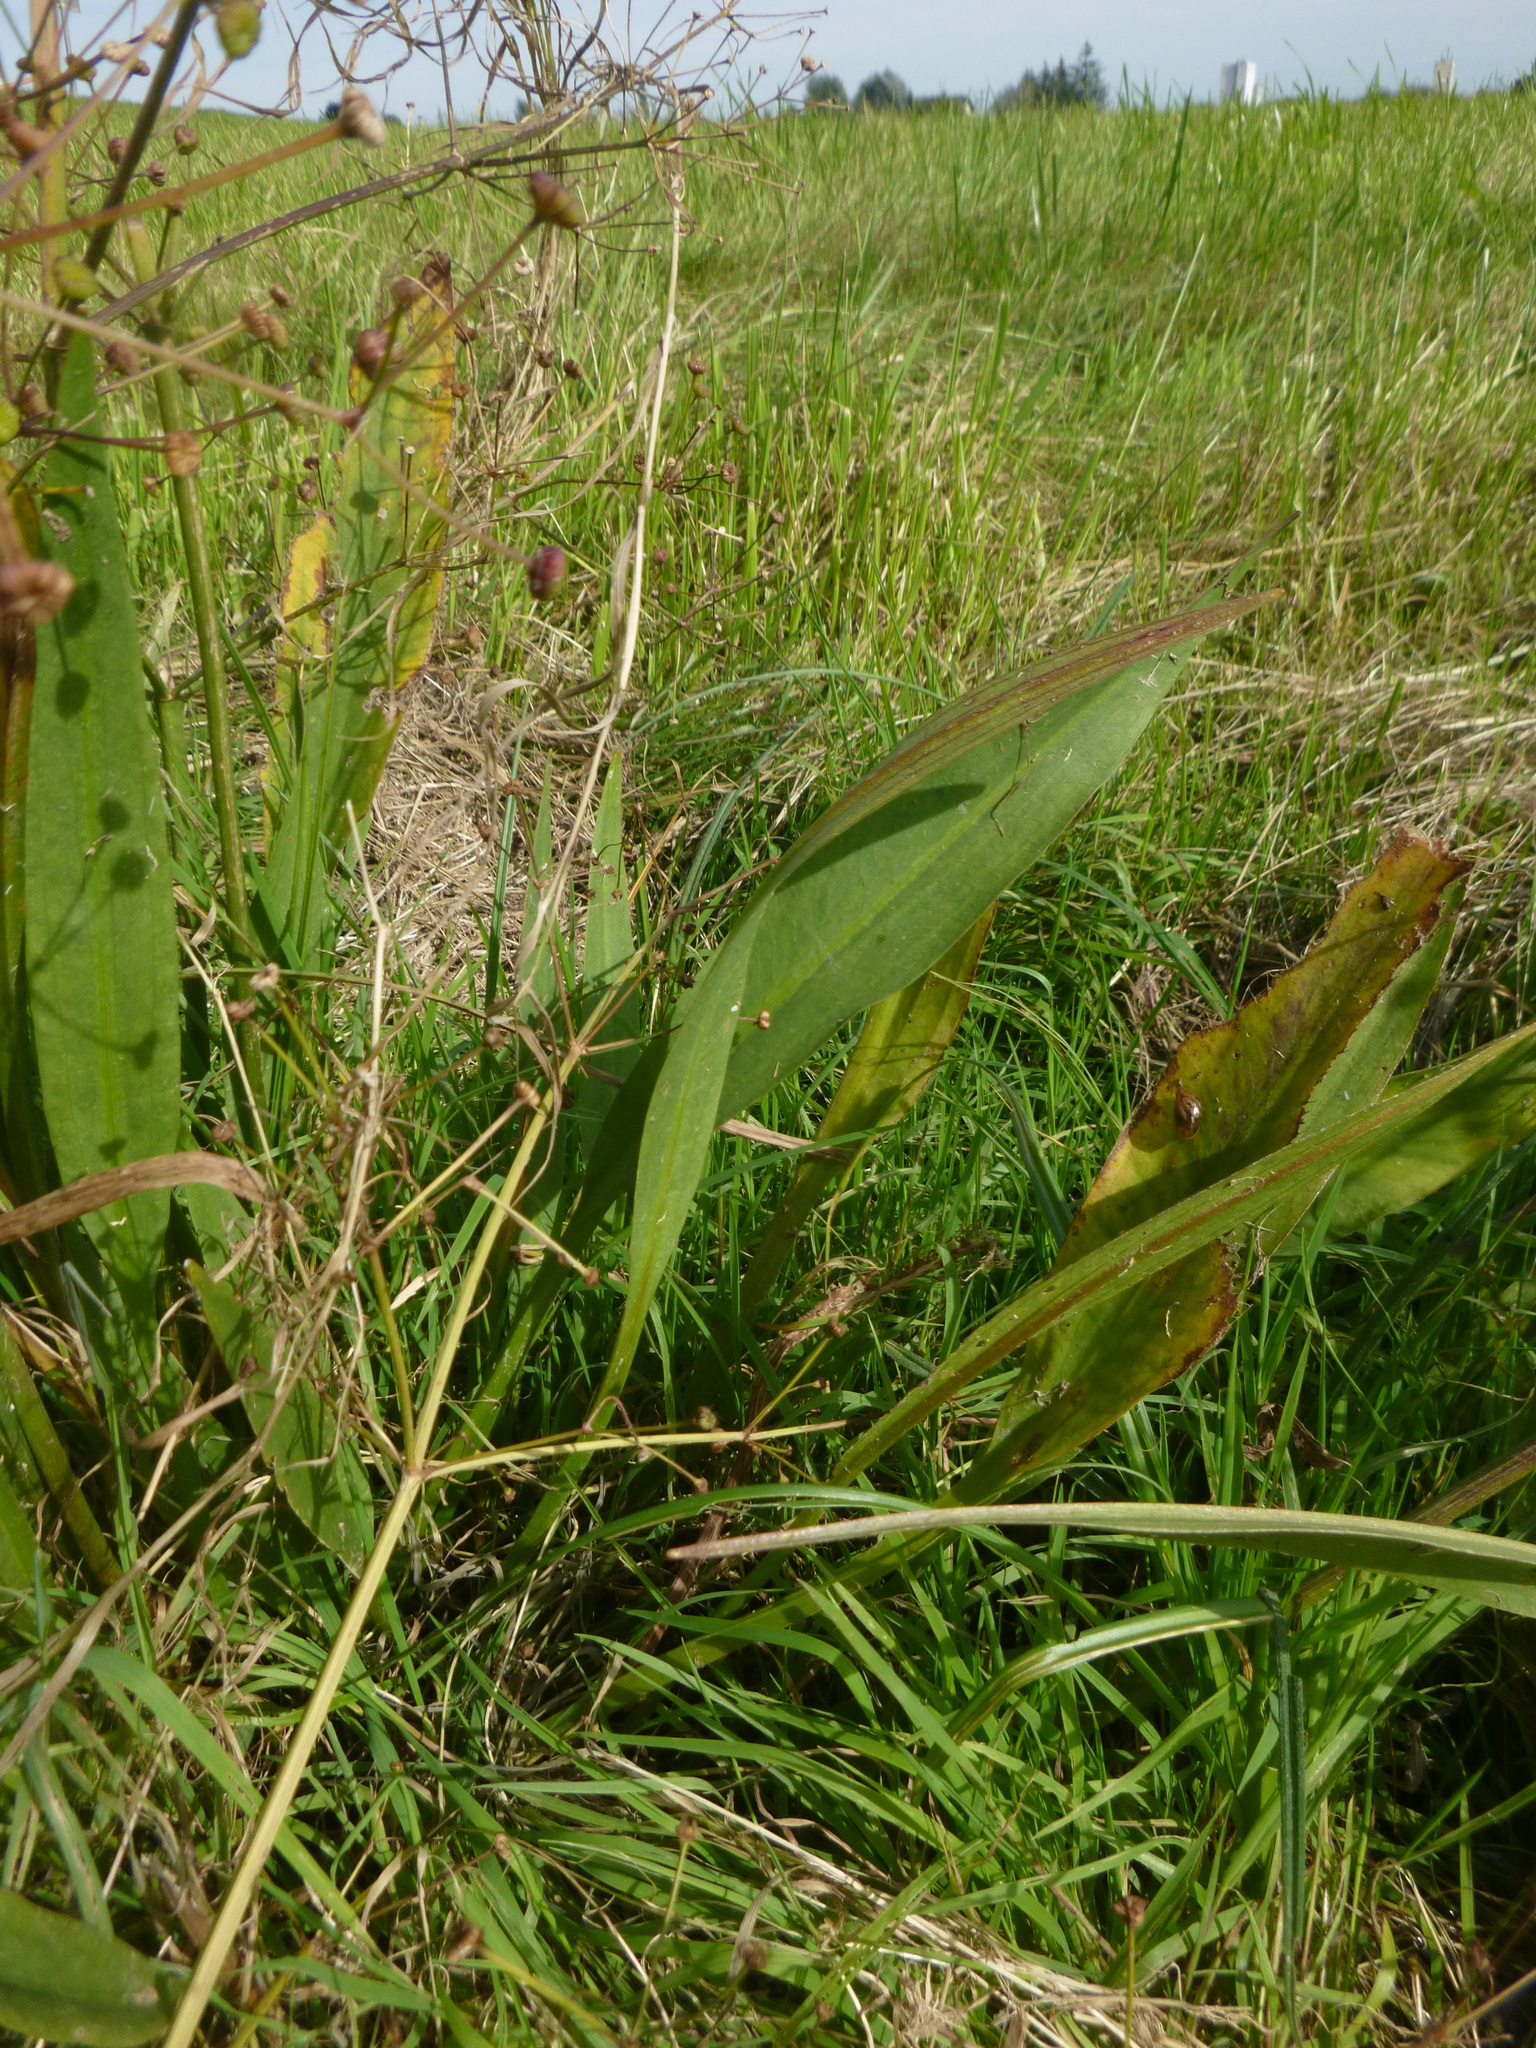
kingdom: Plantae
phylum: Tracheophyta
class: Liliopsida
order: Alismatales
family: Alismataceae
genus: Alisma
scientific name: Alisma lanceolatum
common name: Narrow-leaved water-plantain
